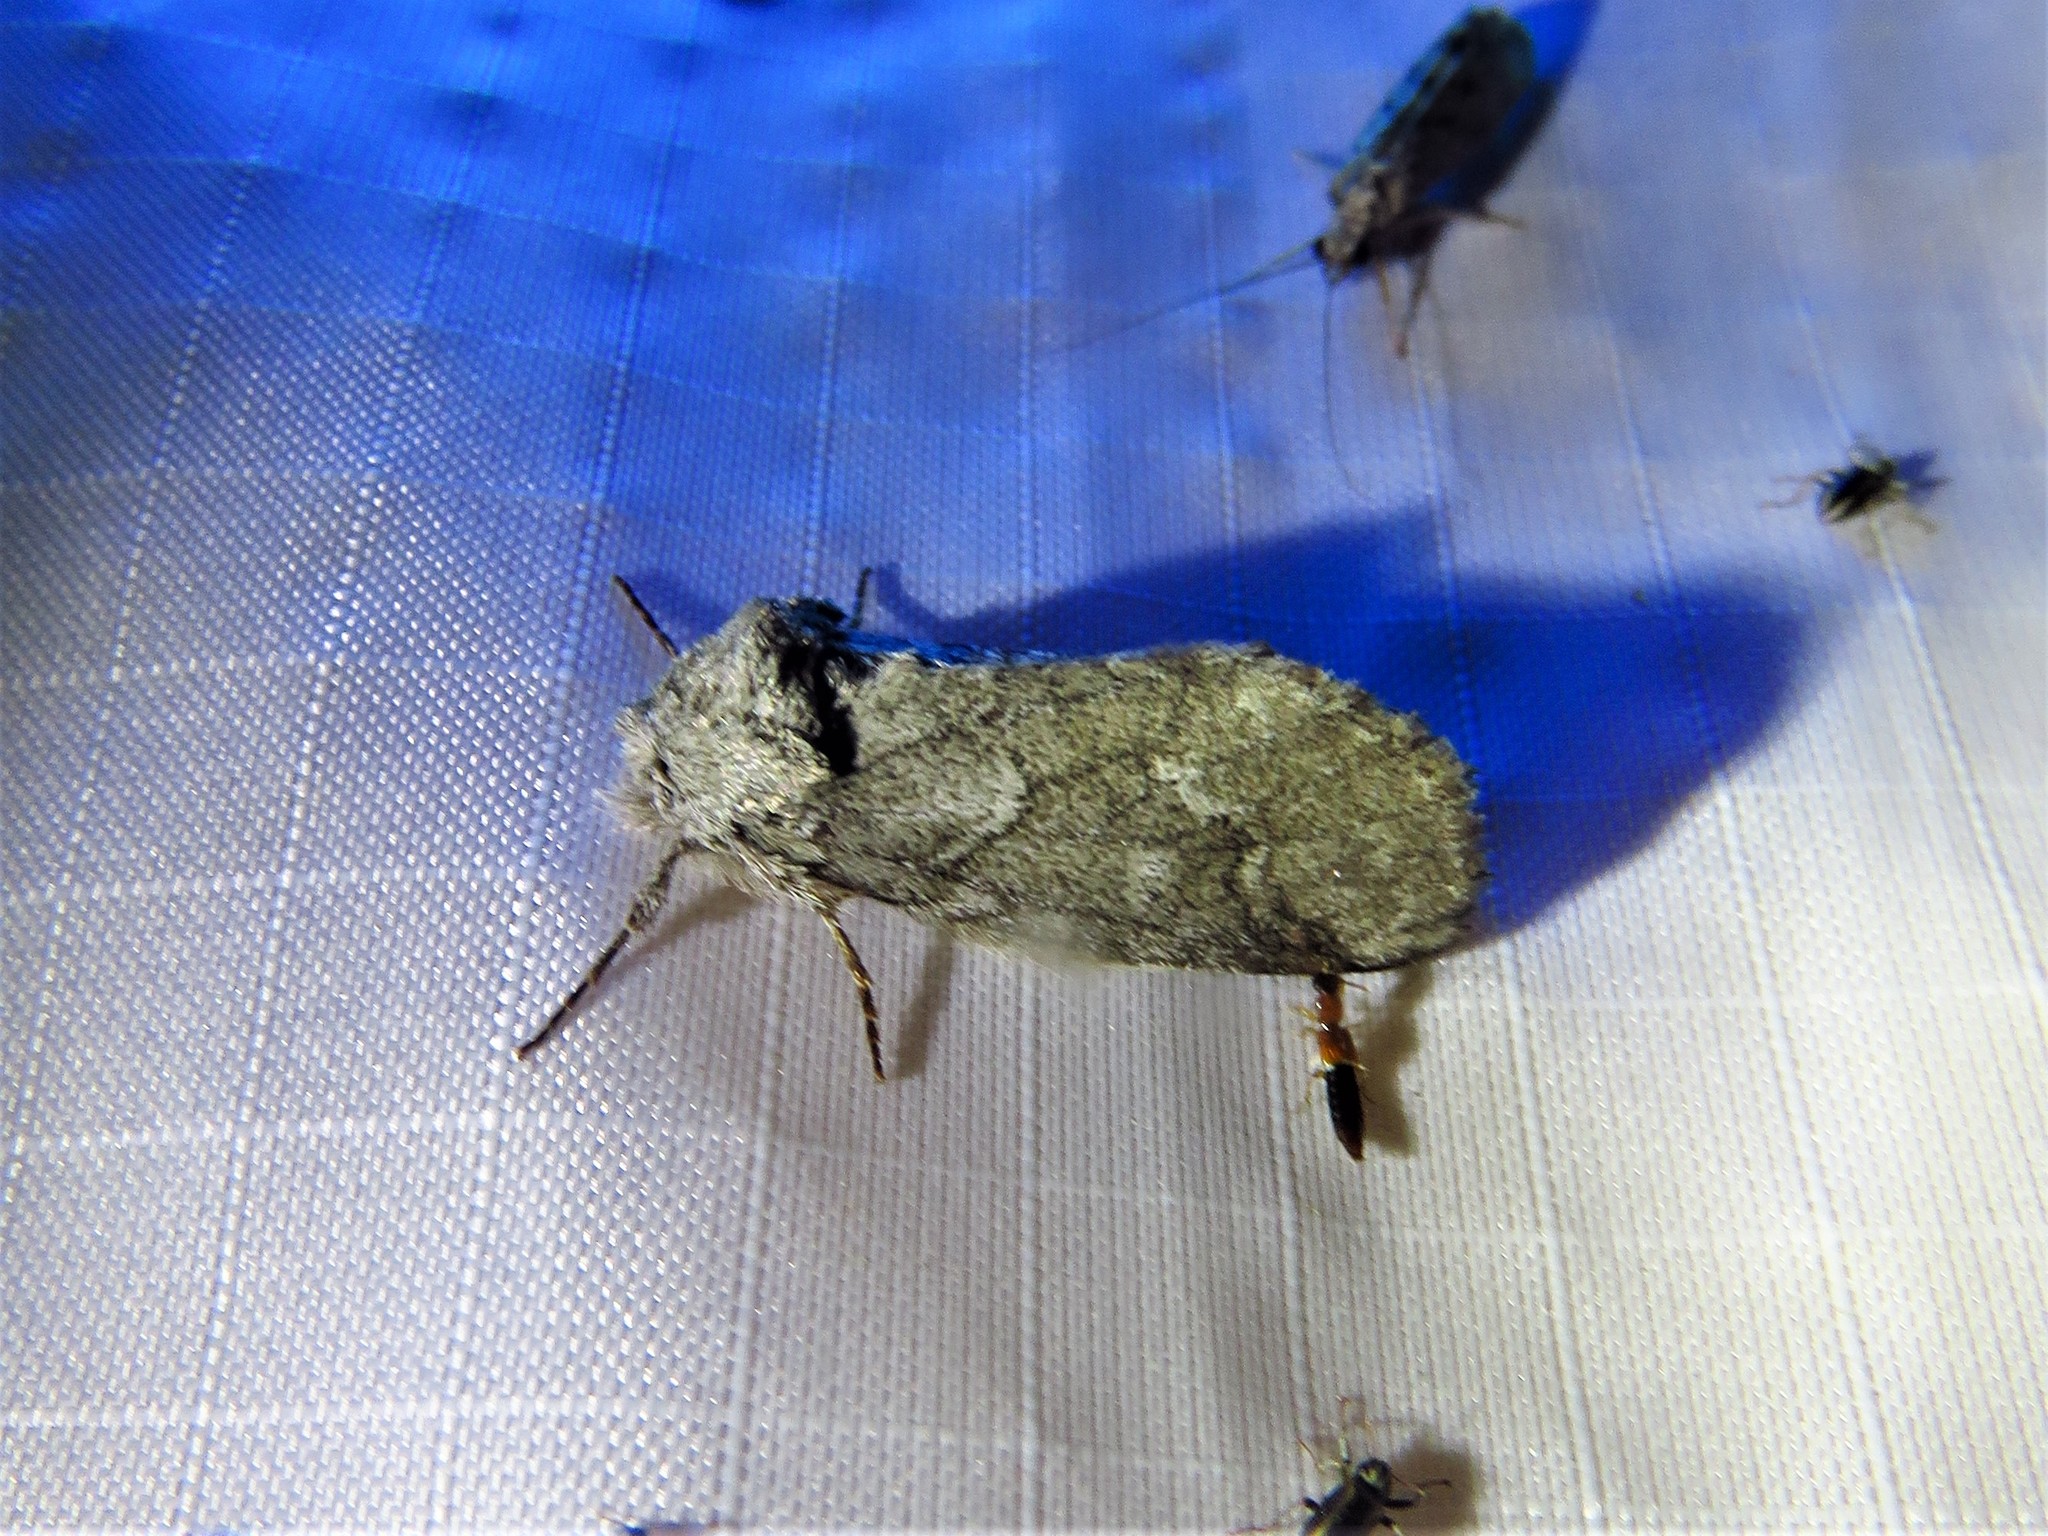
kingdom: Animalia
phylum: Arthropoda
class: Insecta
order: Lepidoptera
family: Notodontidae
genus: Lochmaeus
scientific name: Lochmaeus bilineata
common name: Double-lined prominent
